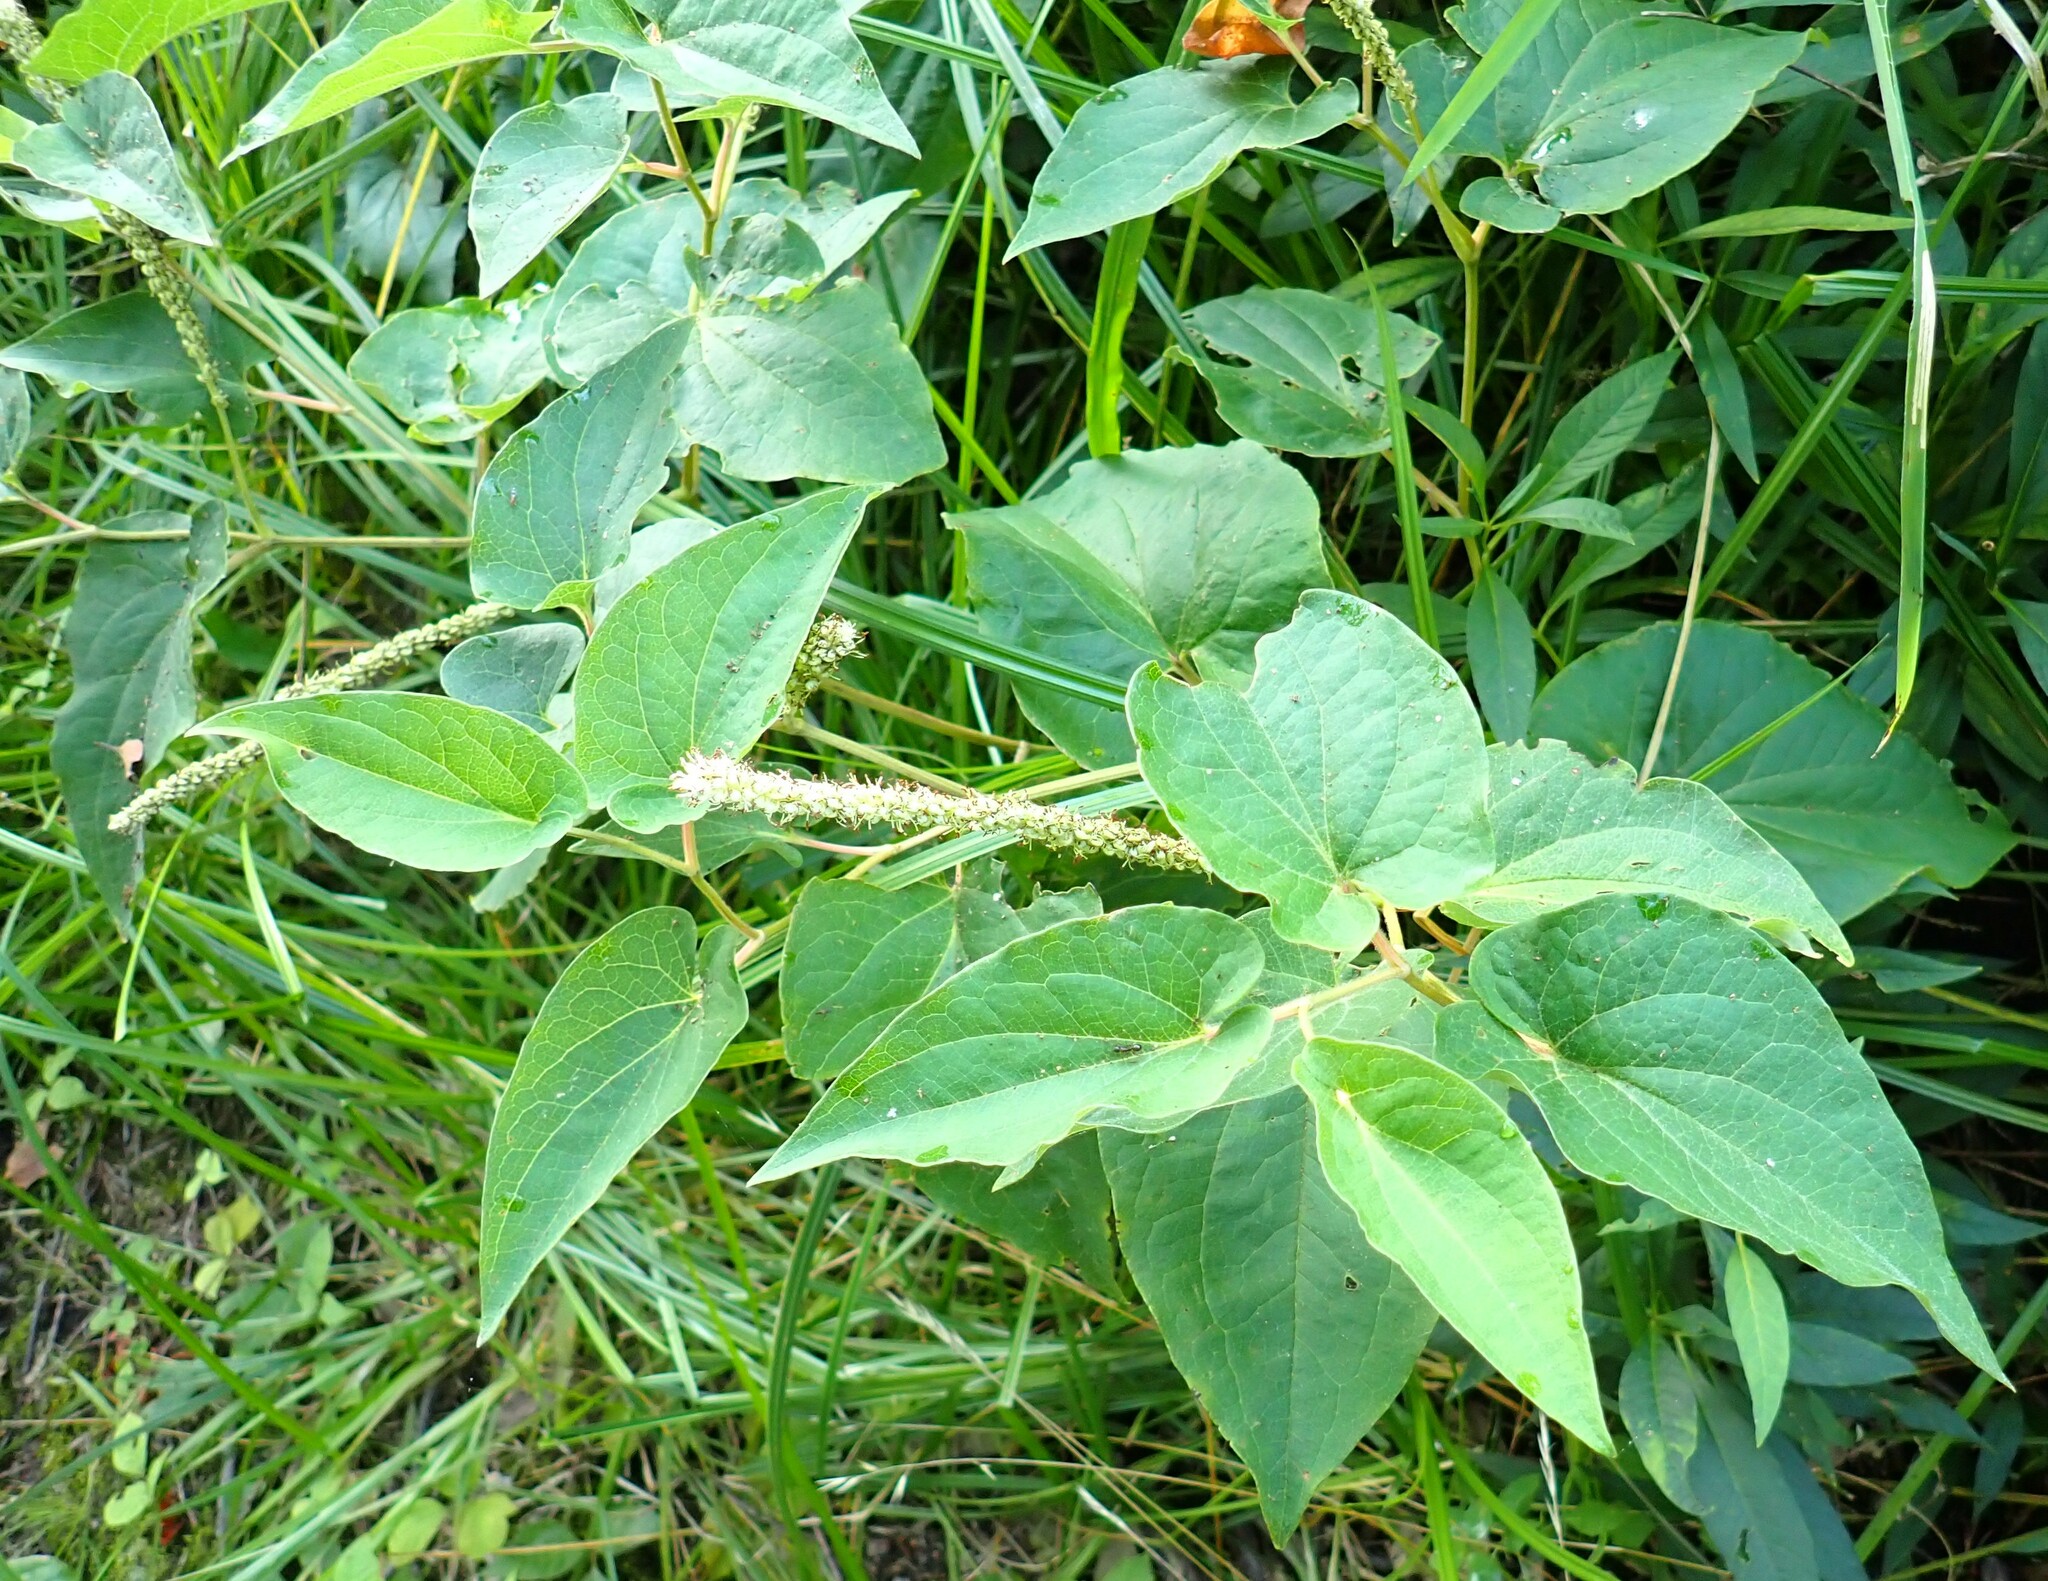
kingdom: Plantae
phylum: Tracheophyta
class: Magnoliopsida
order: Piperales
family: Saururaceae
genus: Saururus
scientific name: Saururus cernuus
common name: Lizard's-tail
